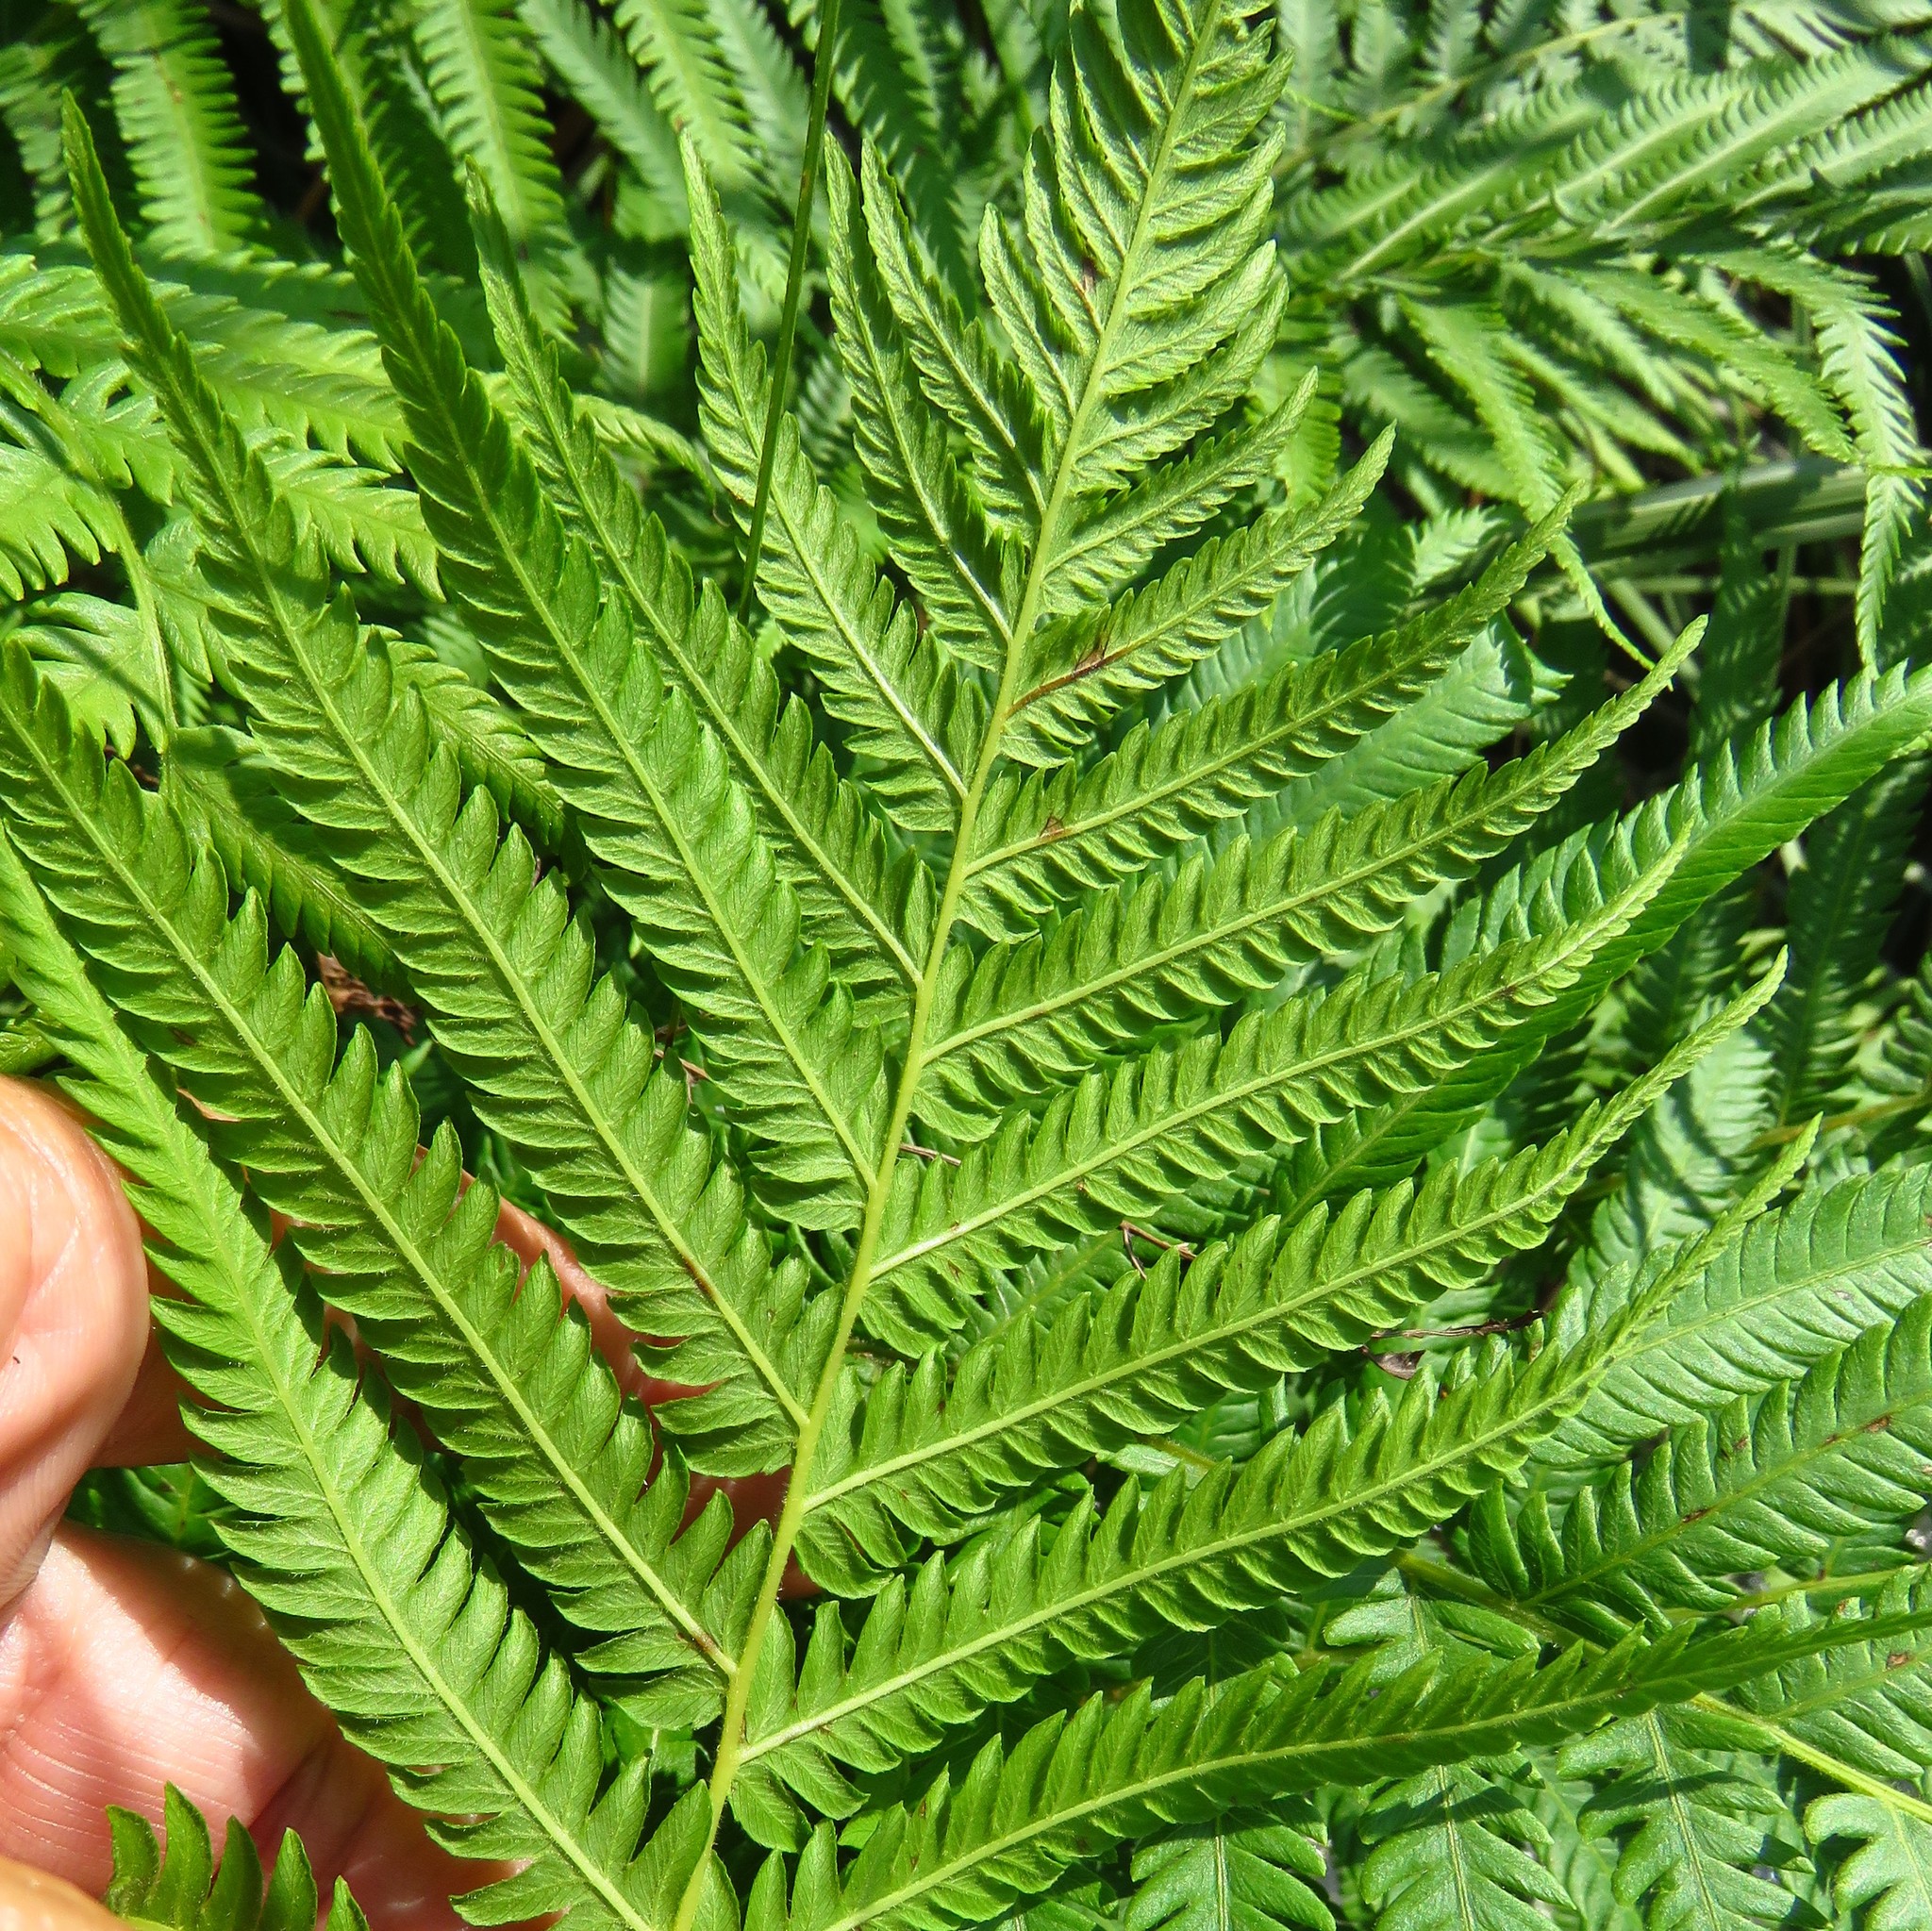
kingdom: Plantae
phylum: Tracheophyta
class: Polypodiopsida
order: Polypodiales
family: Thelypteridaceae
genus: Pelazoneuron
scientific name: Pelazoneuron ovatum
